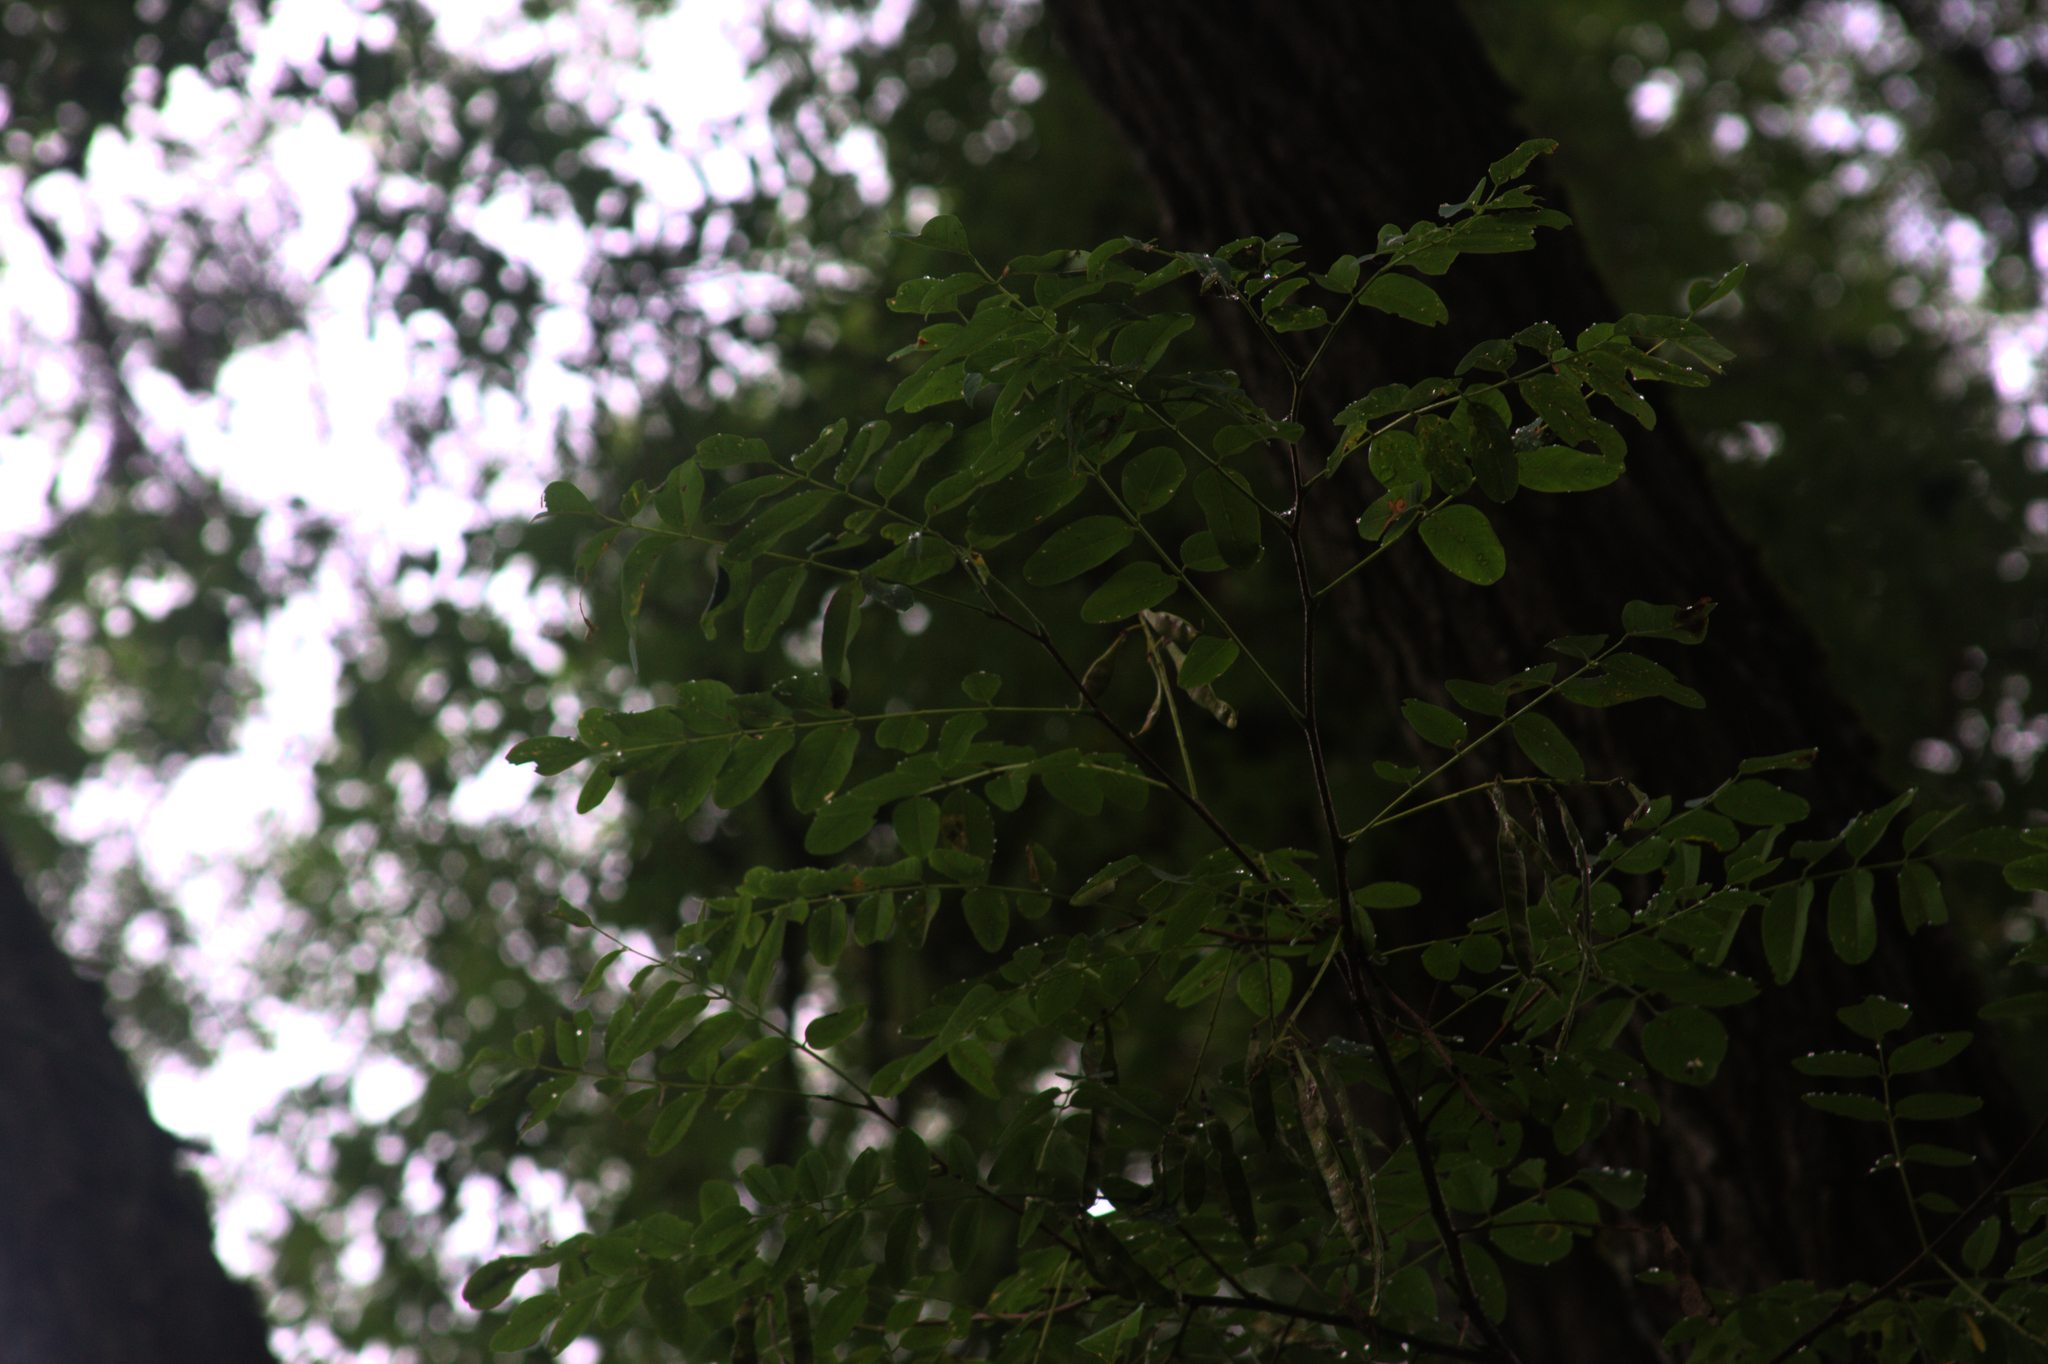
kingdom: Plantae
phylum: Tracheophyta
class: Magnoliopsida
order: Fabales
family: Fabaceae
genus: Robinia
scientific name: Robinia pseudoacacia
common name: Black locust
